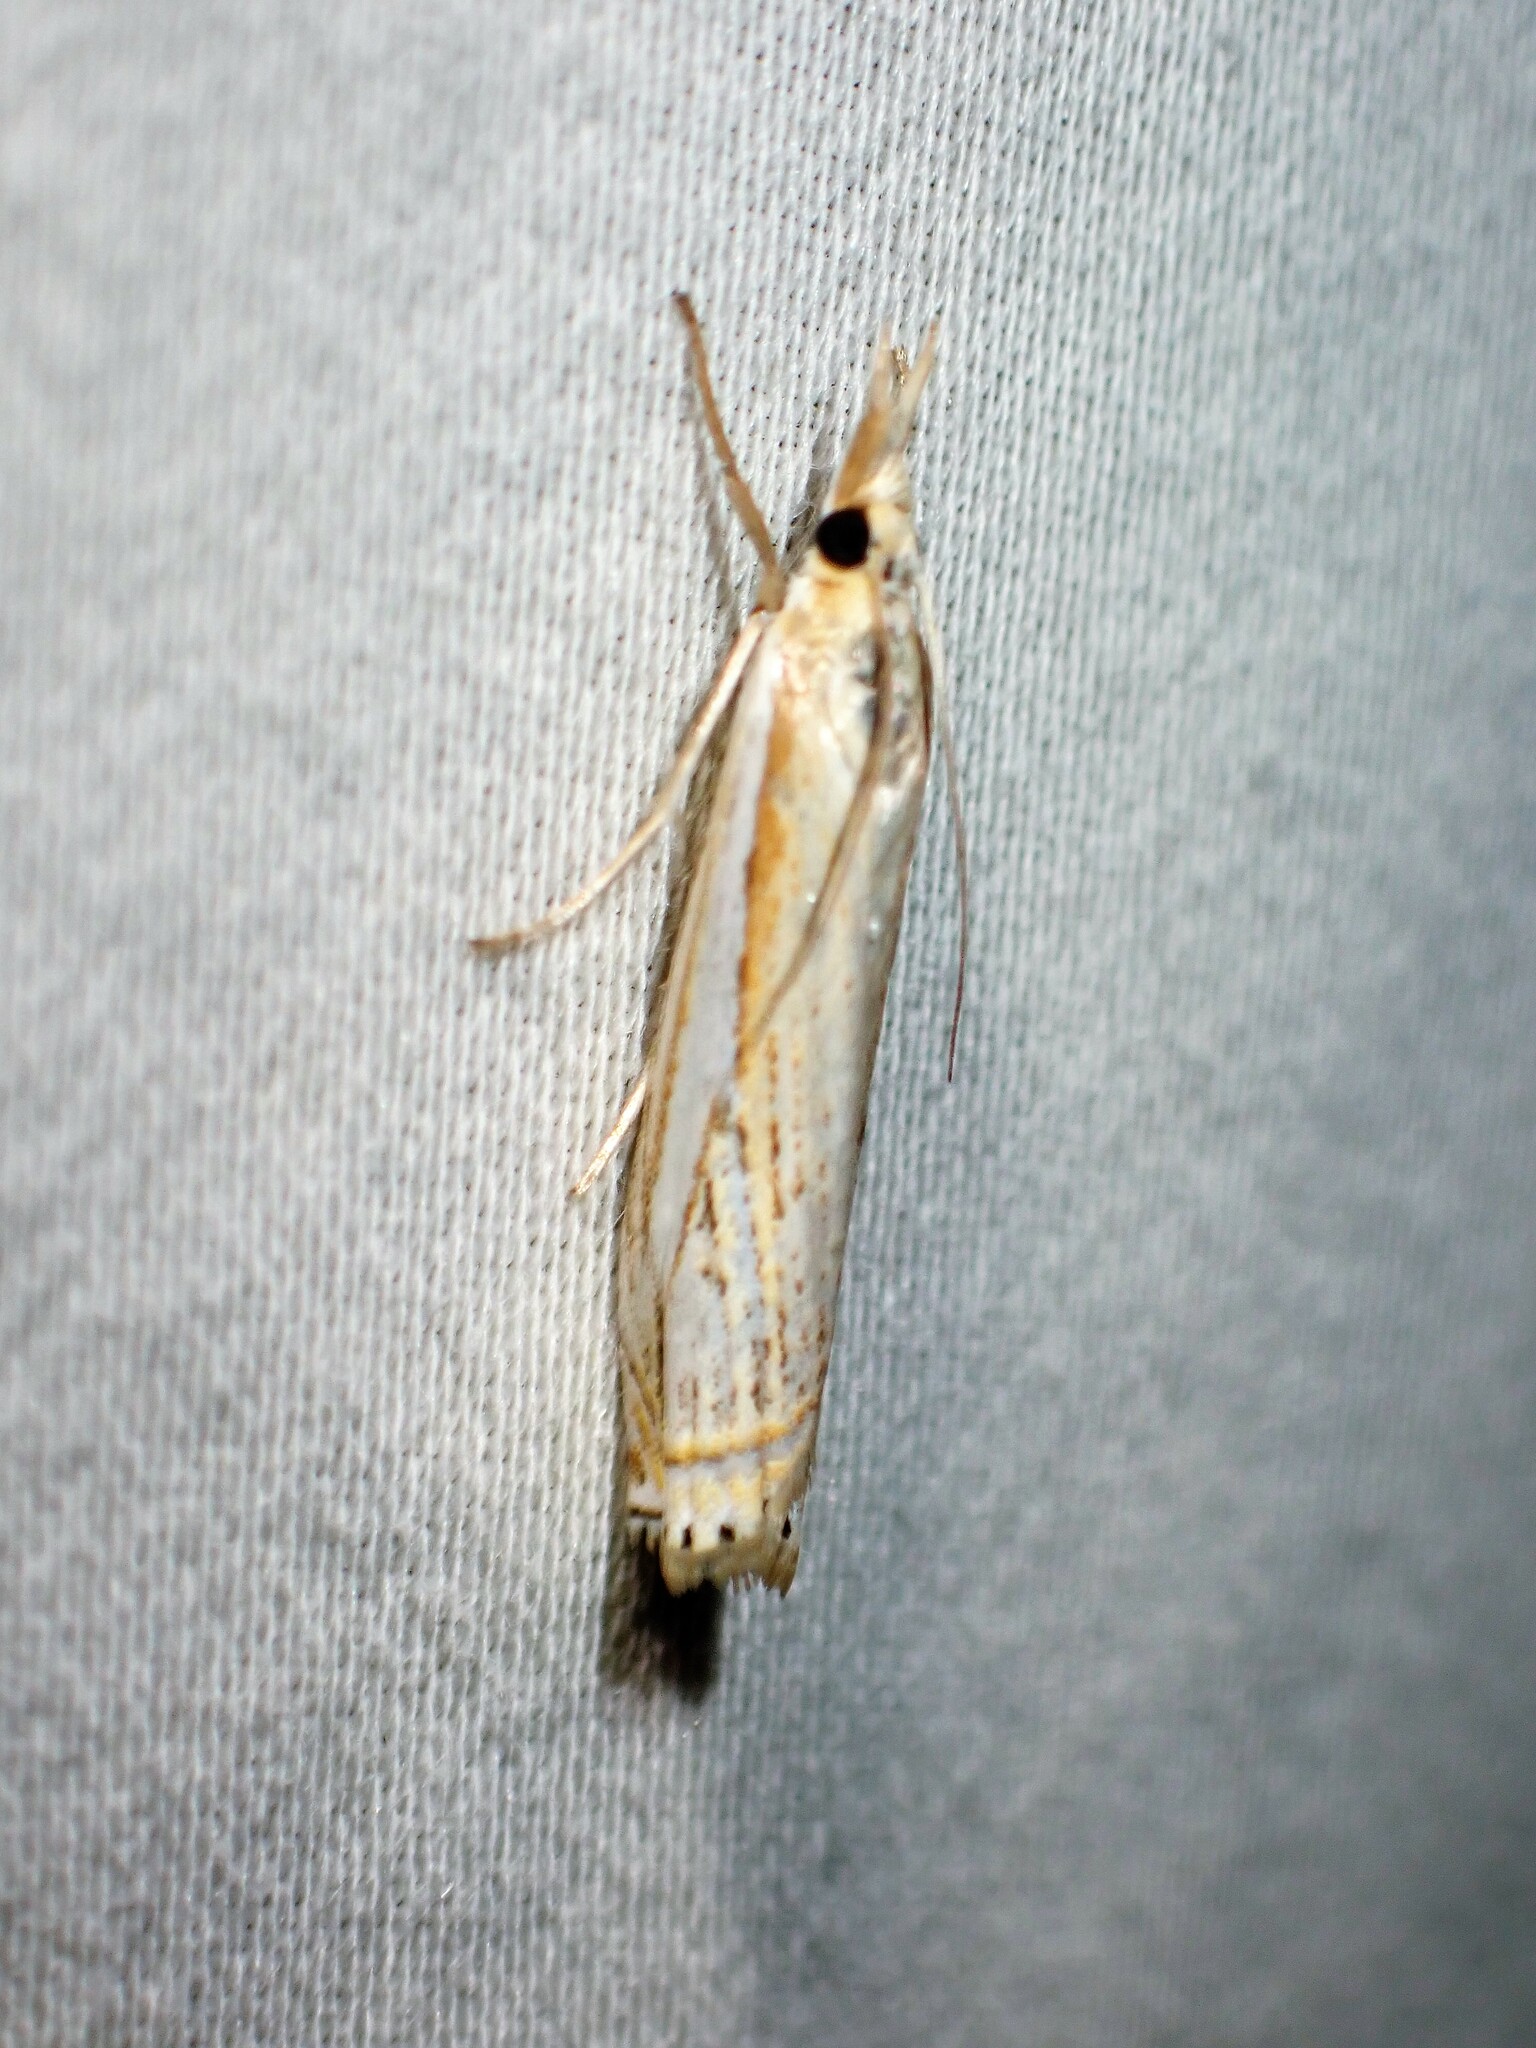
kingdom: Animalia
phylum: Arthropoda
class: Insecta
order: Lepidoptera
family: Crambidae
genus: Crambus
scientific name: Crambus saltuellus
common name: Pasture grass-veneer
